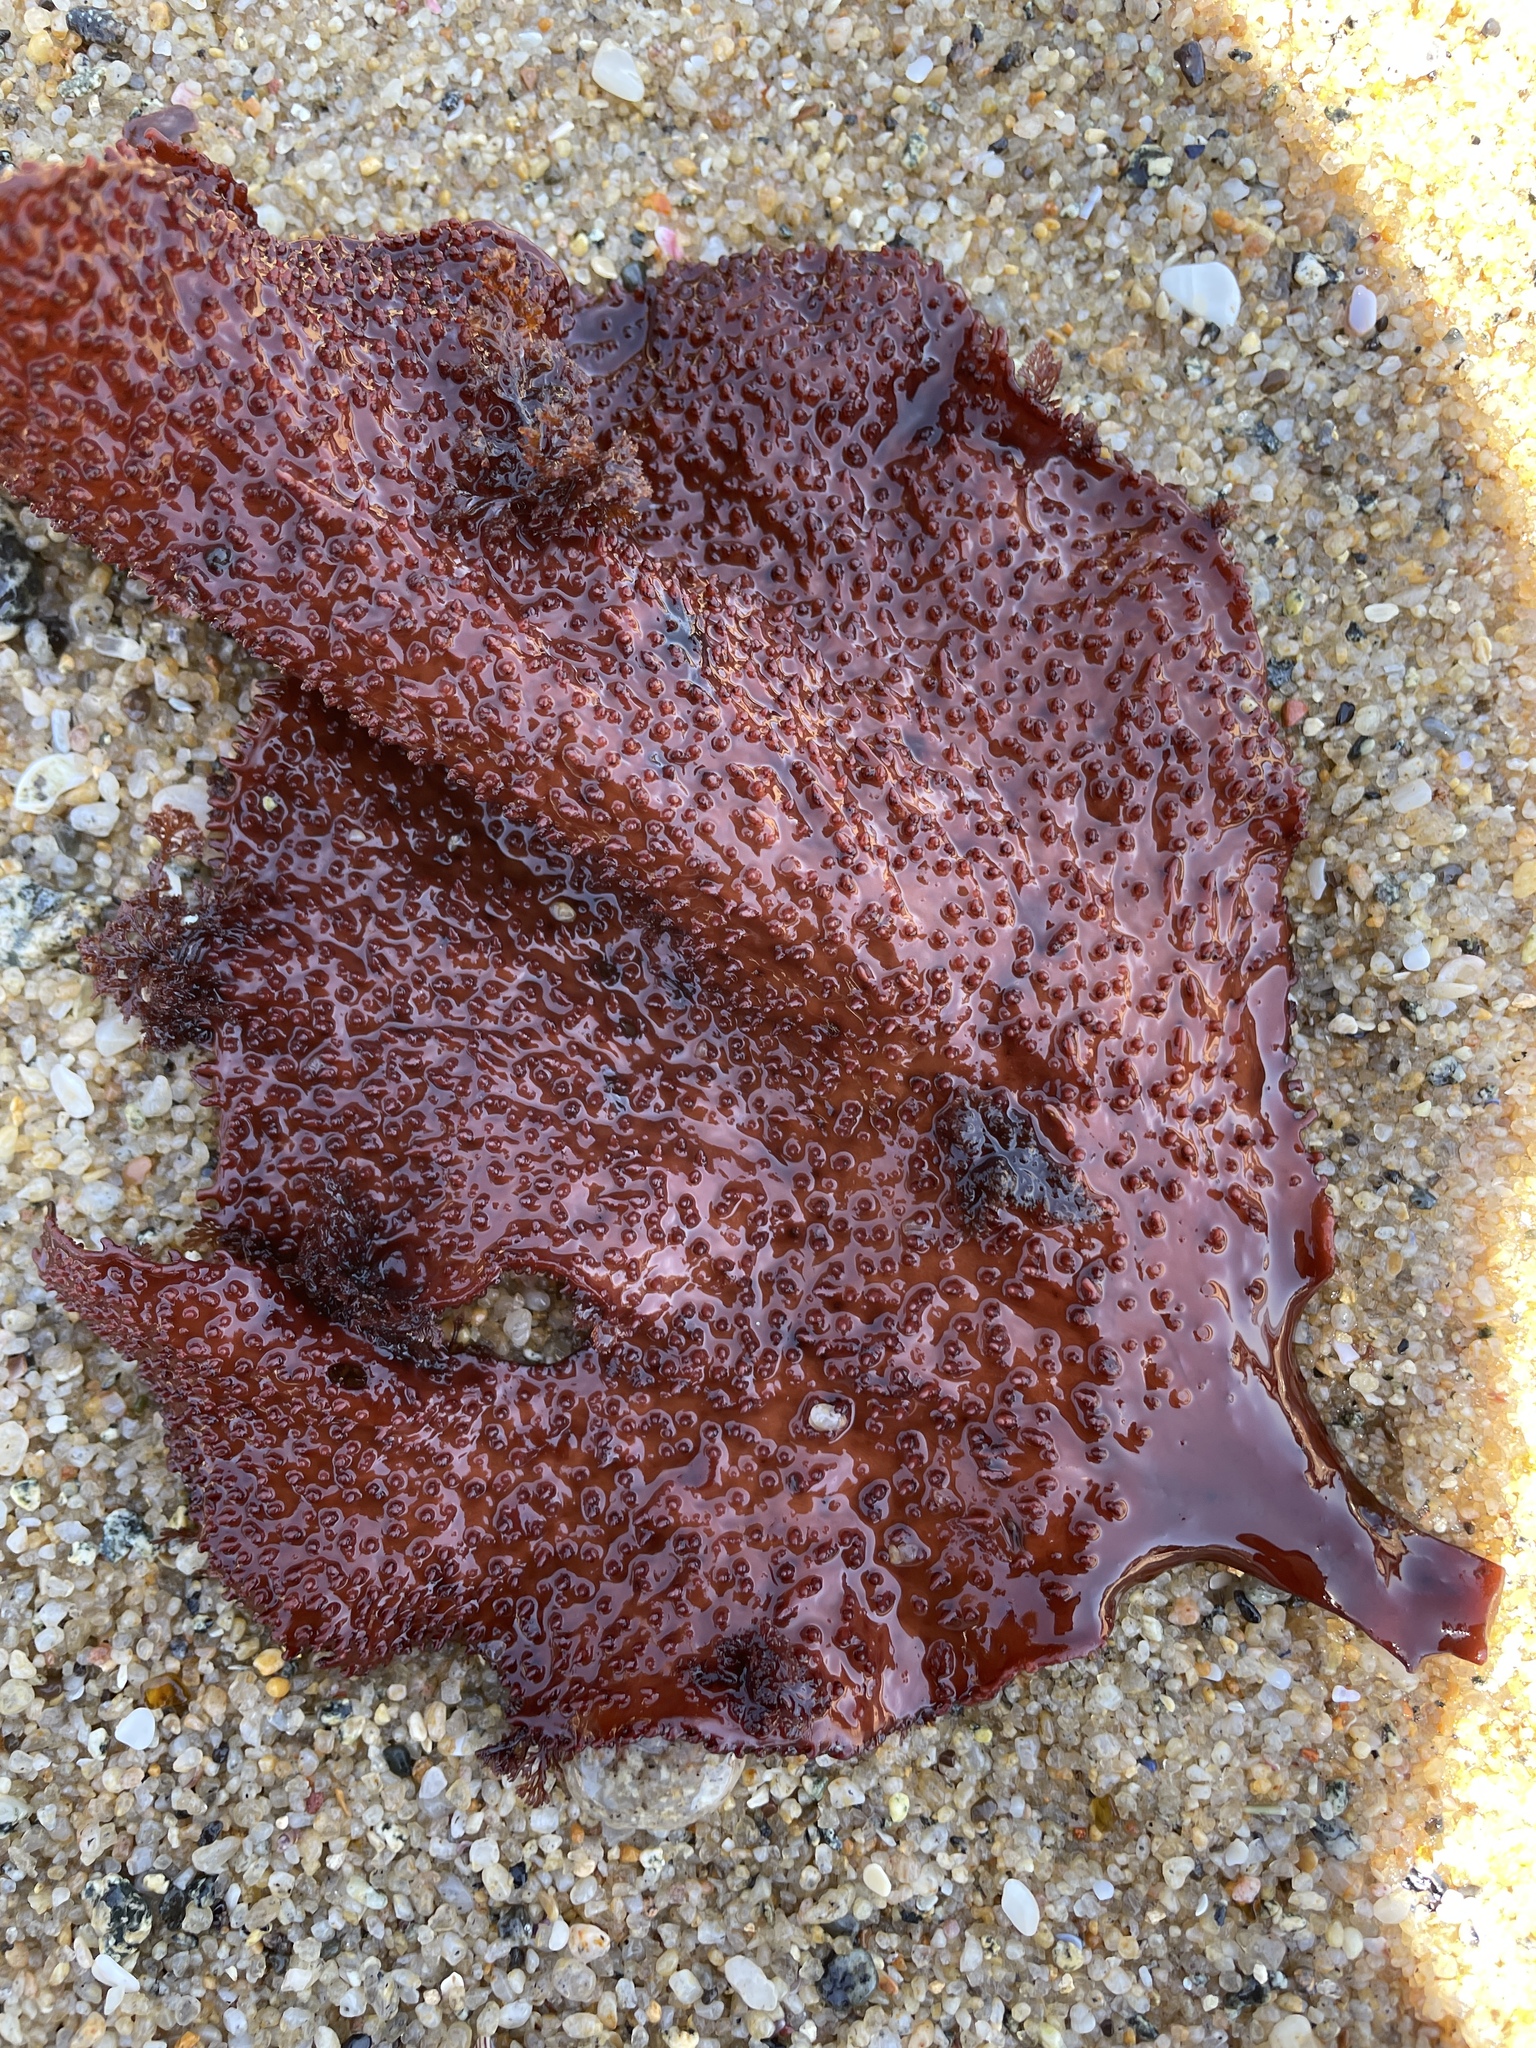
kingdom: Plantae
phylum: Rhodophyta
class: Florideophyceae
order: Gigartinales
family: Gigartinaceae
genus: Chondracanthus
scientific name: Chondracanthus exasperatus
